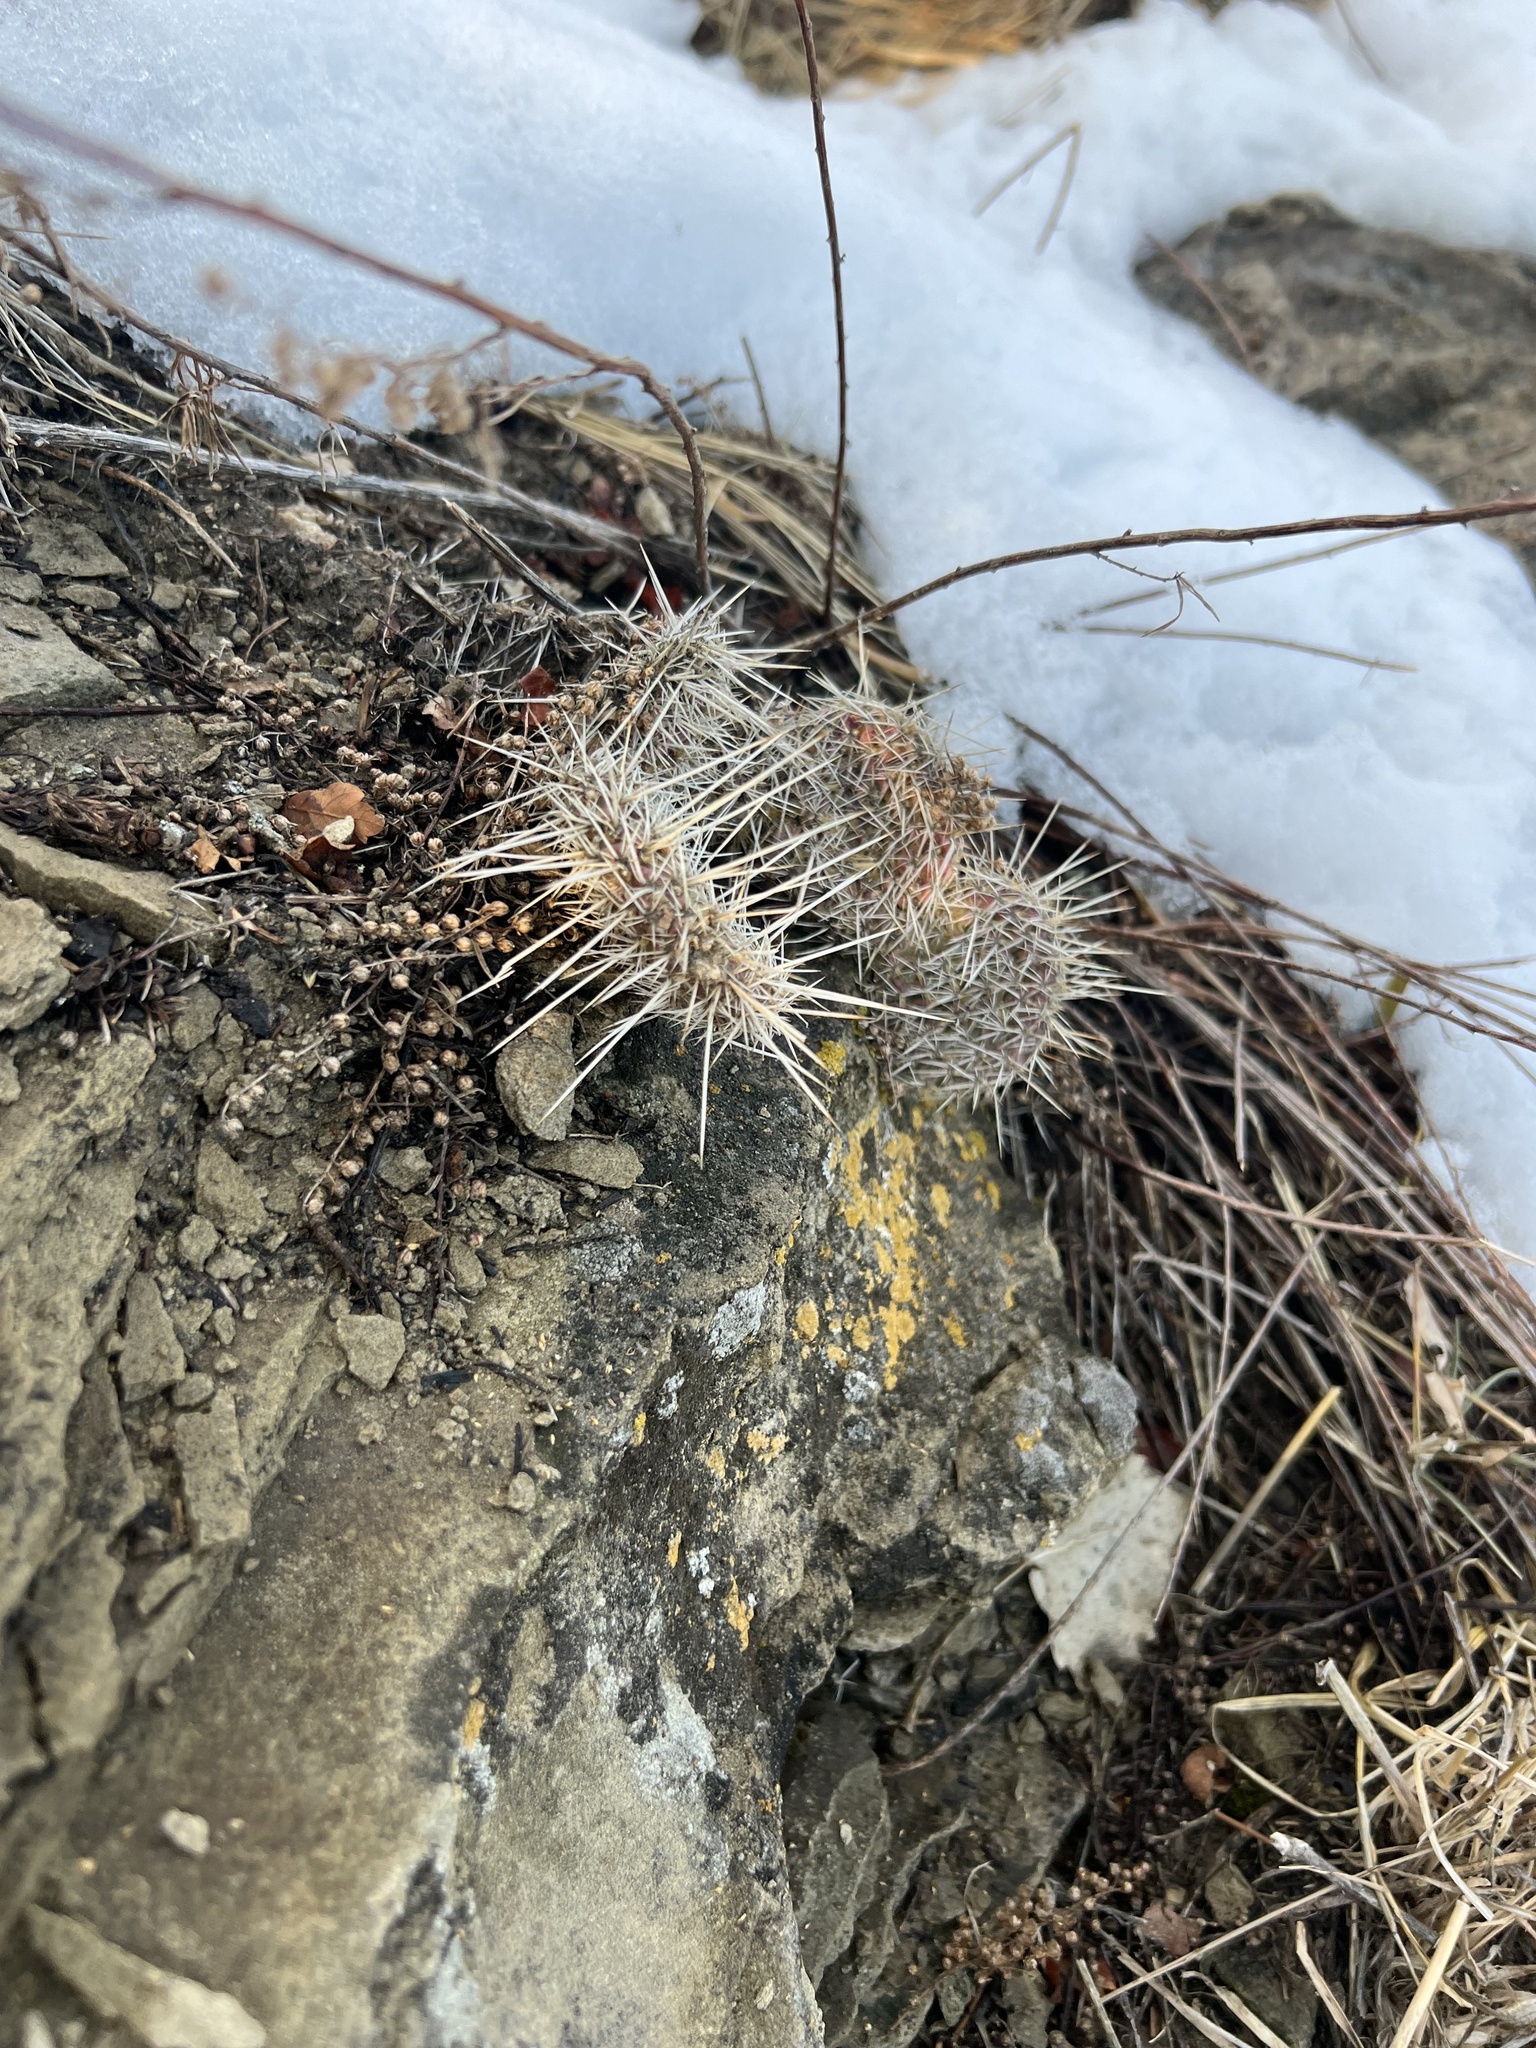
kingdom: Plantae
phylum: Tracheophyta
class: Magnoliopsida
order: Caryophyllales
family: Cactaceae
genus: Opuntia
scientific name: Opuntia polyacantha
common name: Plains prickly-pear
